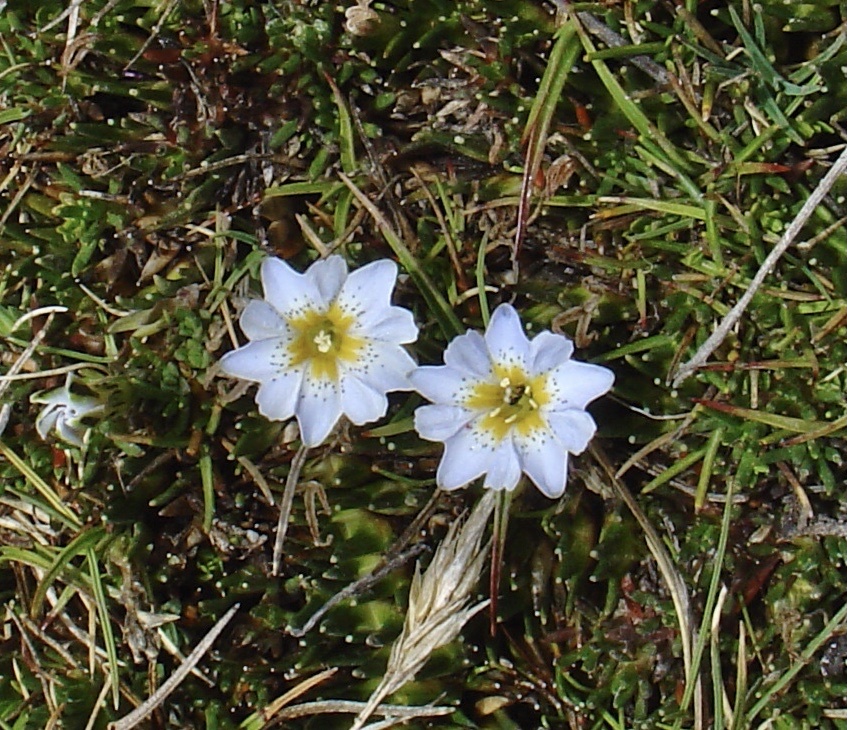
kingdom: Plantae
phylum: Tracheophyta
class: Magnoliopsida
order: Gentianales
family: Gentianaceae
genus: Gentiana
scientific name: Gentiana sedifolia
